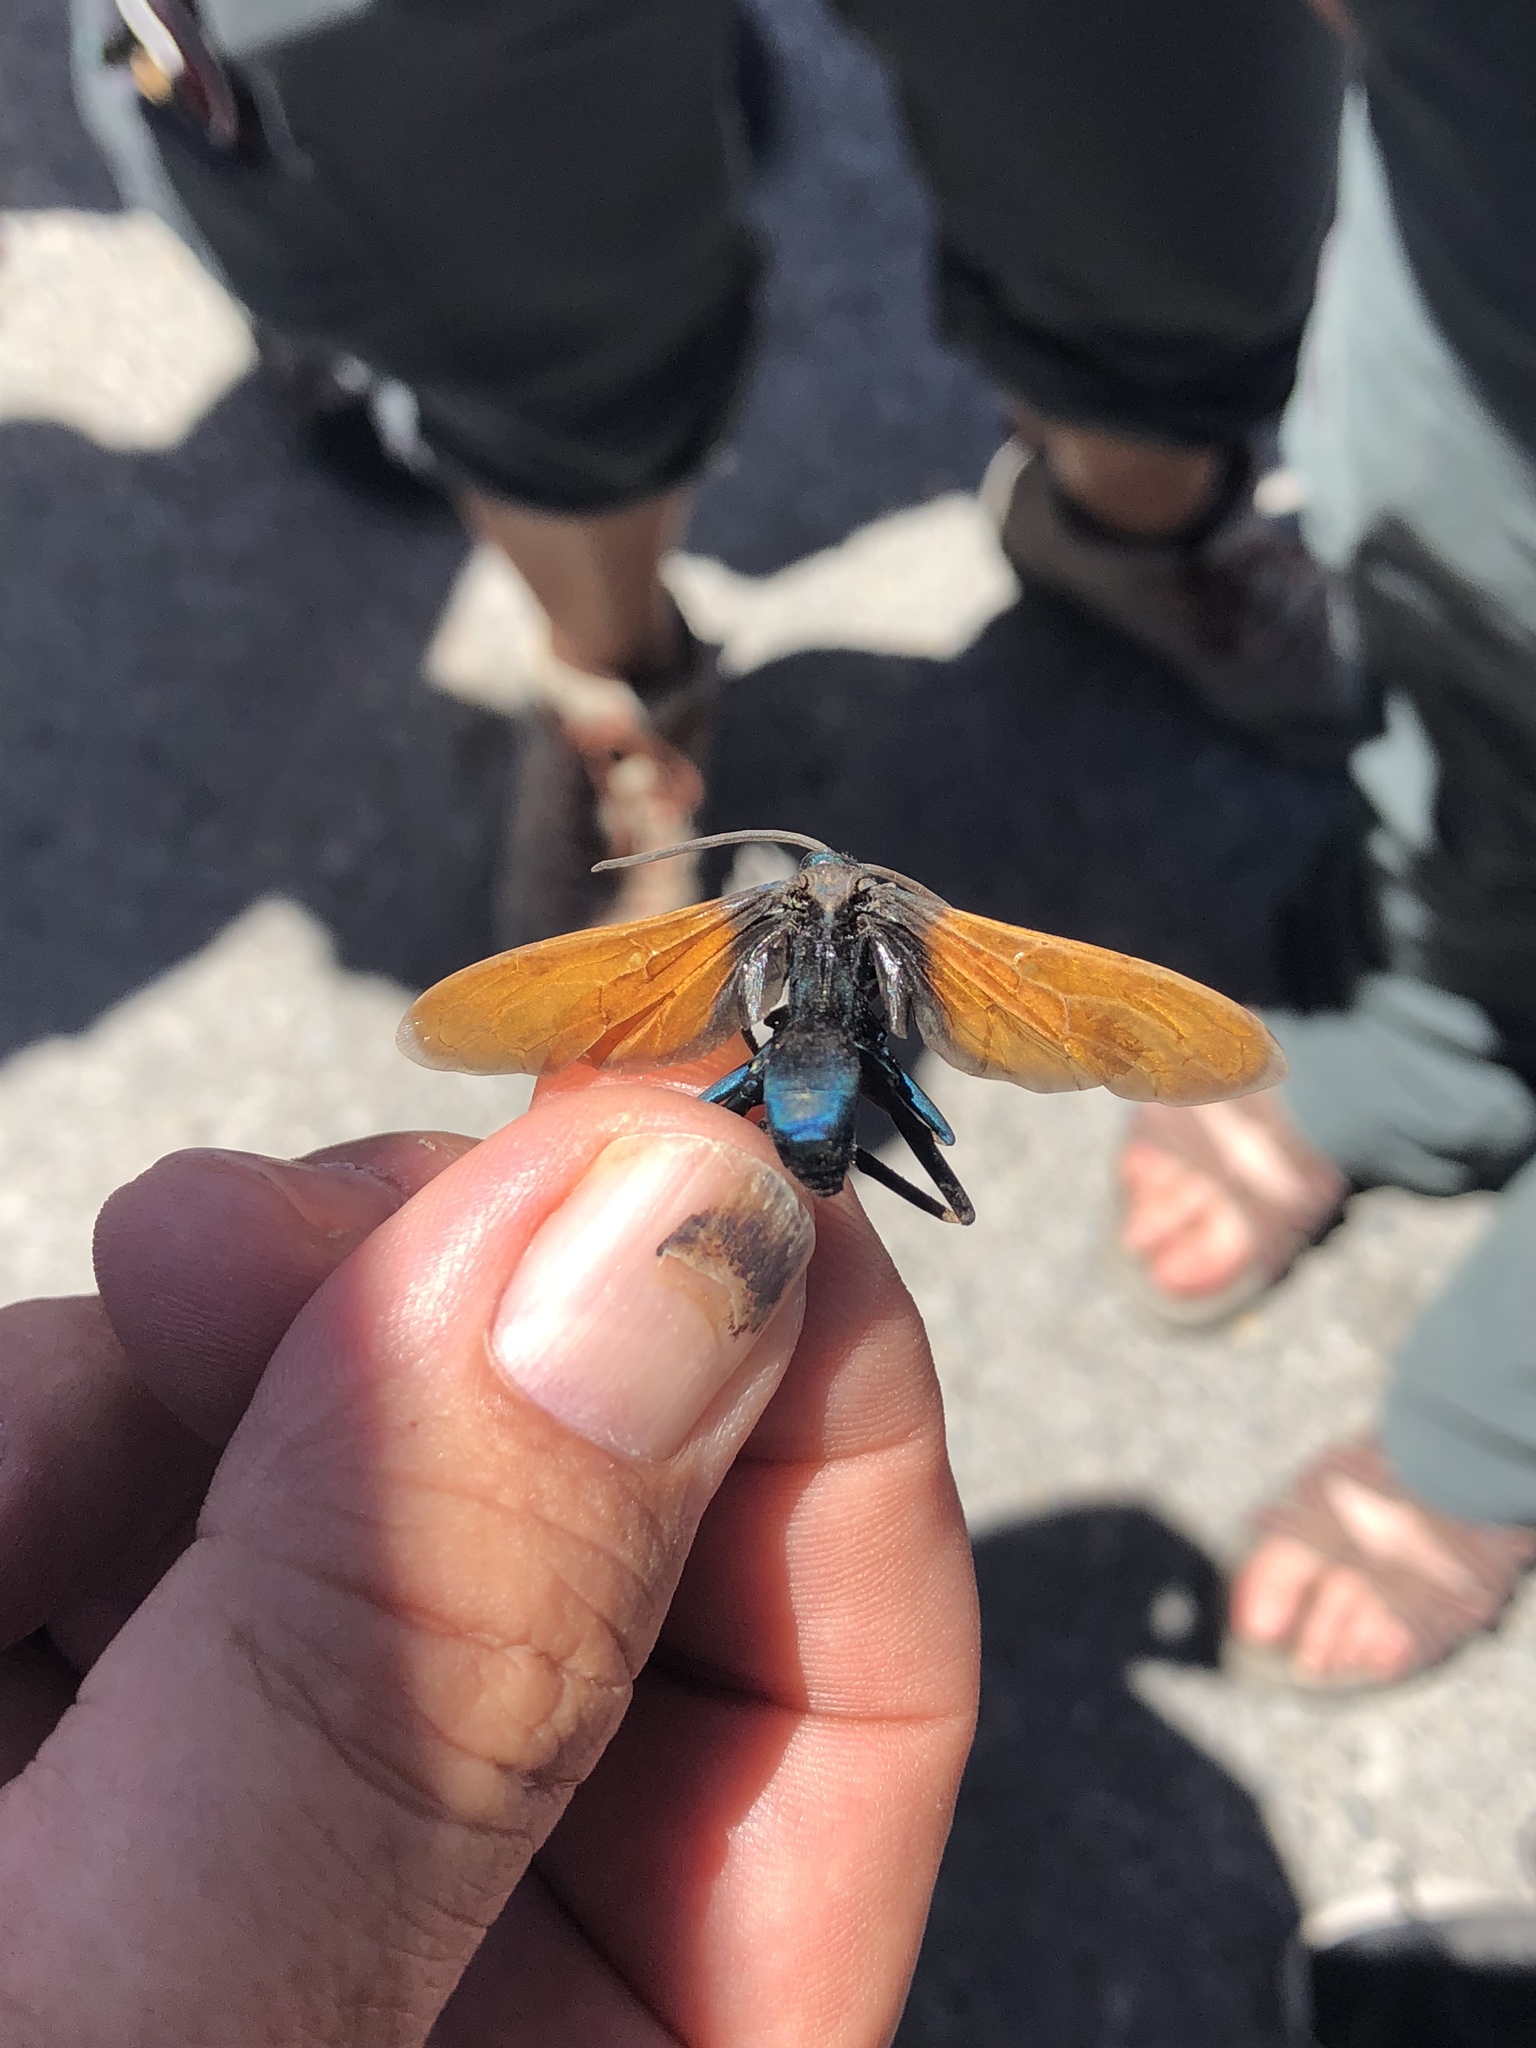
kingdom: Animalia
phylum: Arthropoda
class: Insecta
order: Hymenoptera
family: Pompilidae
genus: Pepsis
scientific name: Pepsis pallidolimbata
